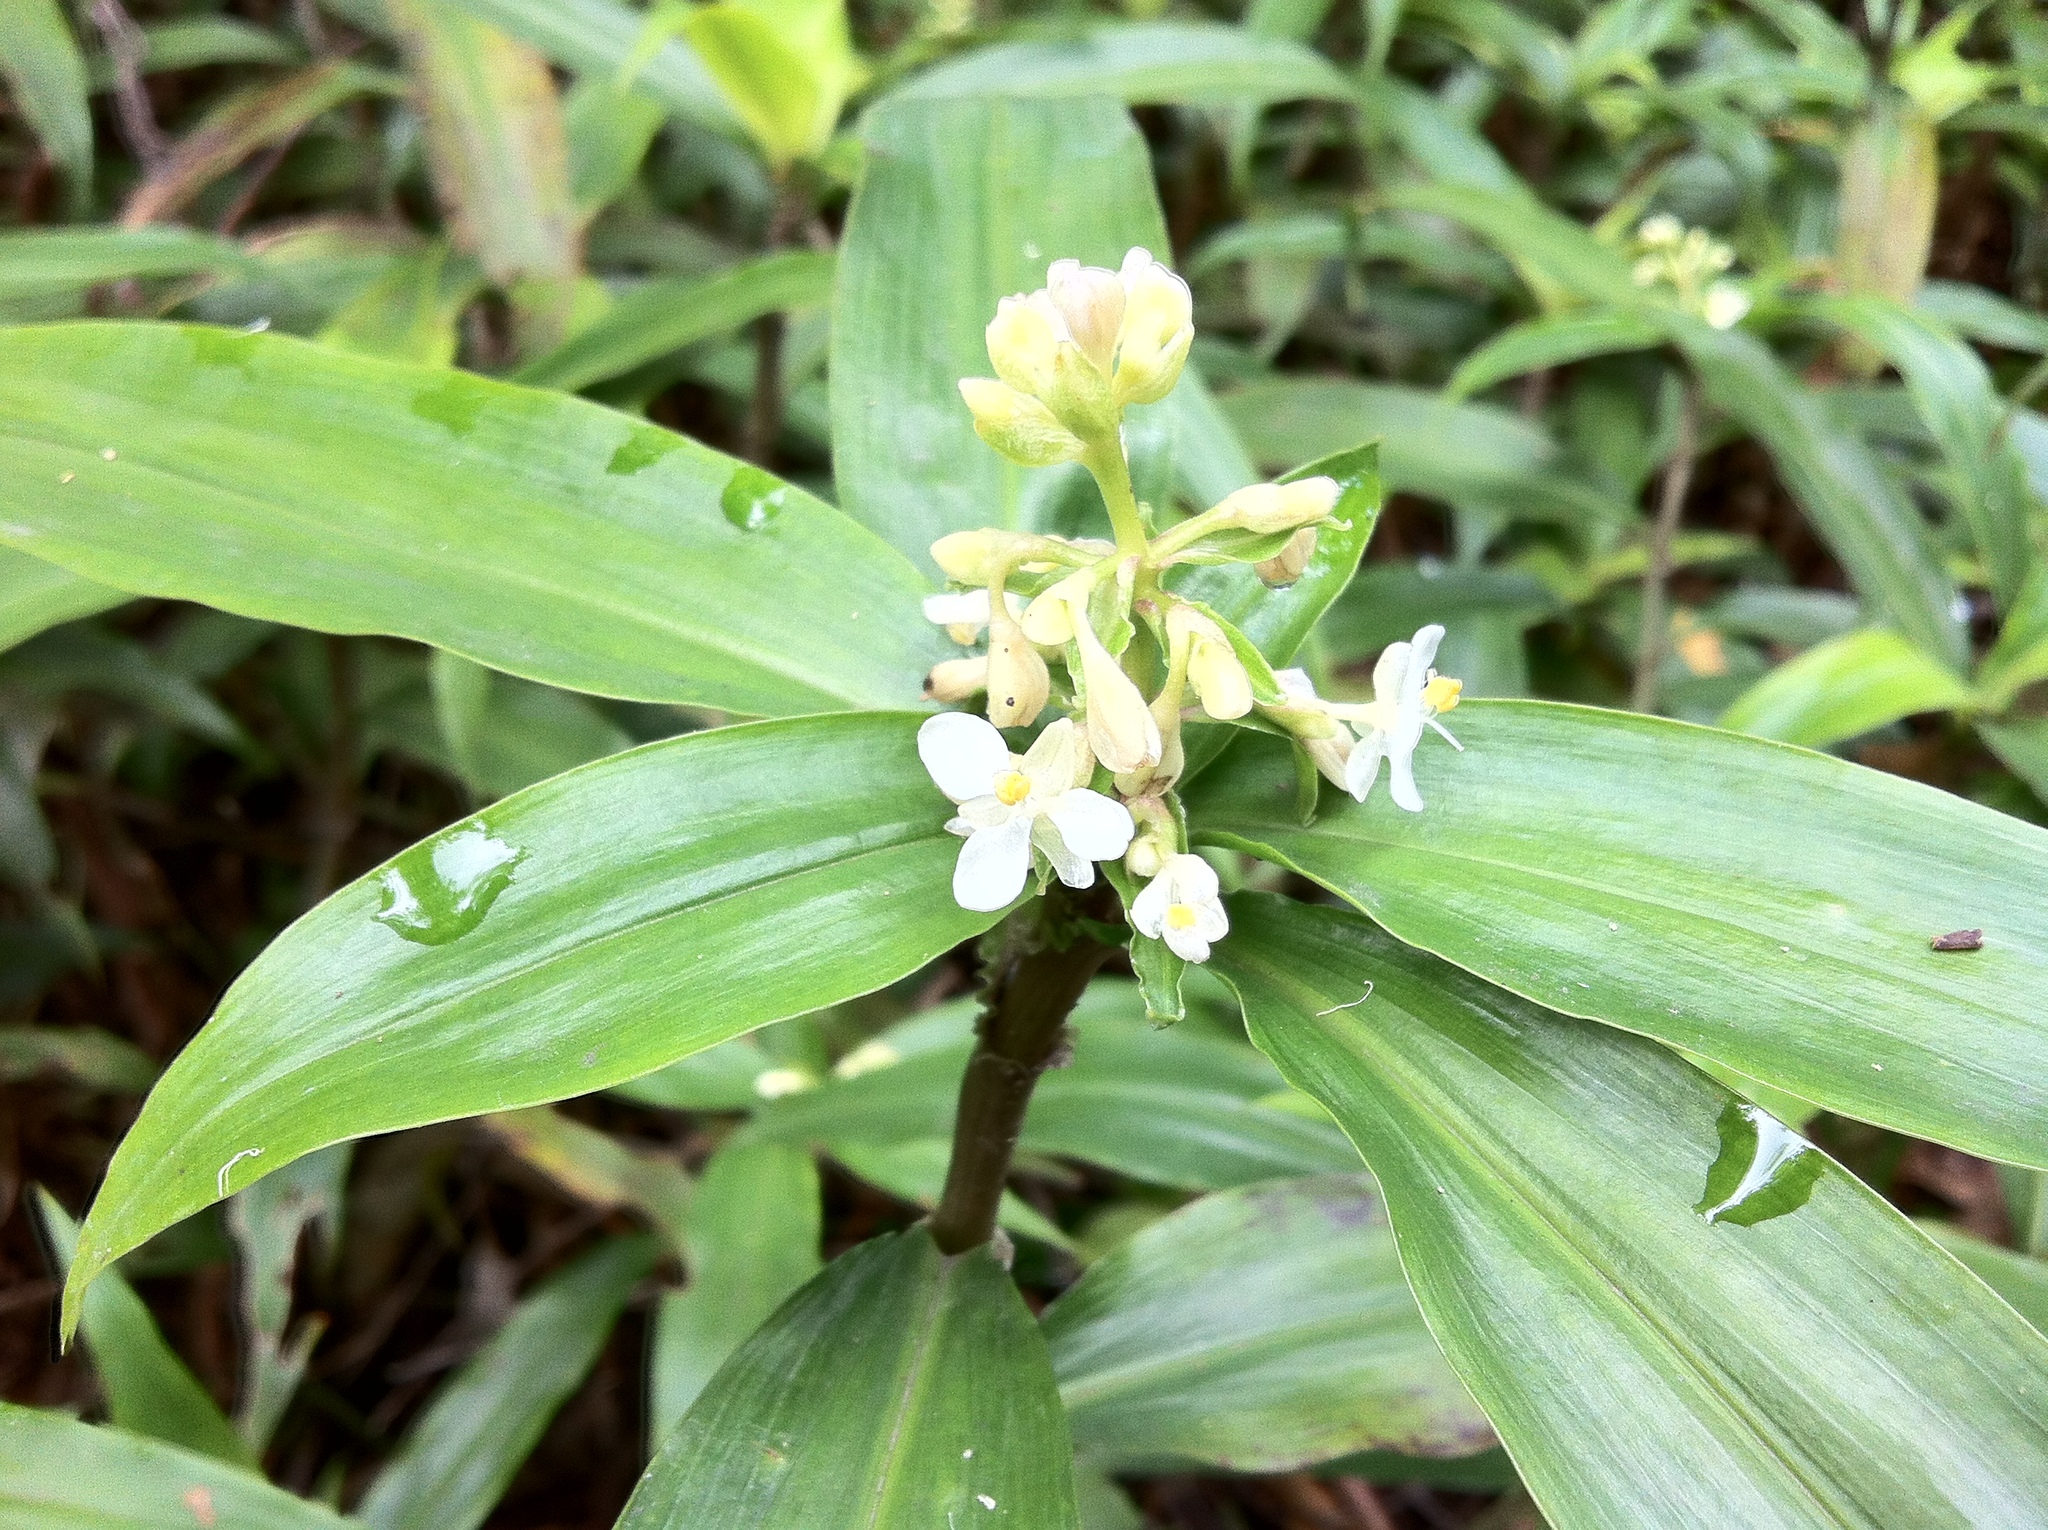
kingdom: Plantae
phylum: Tracheophyta
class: Liliopsida
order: Commelinales
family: Commelinaceae
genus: Pollia
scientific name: Pollia crispata
